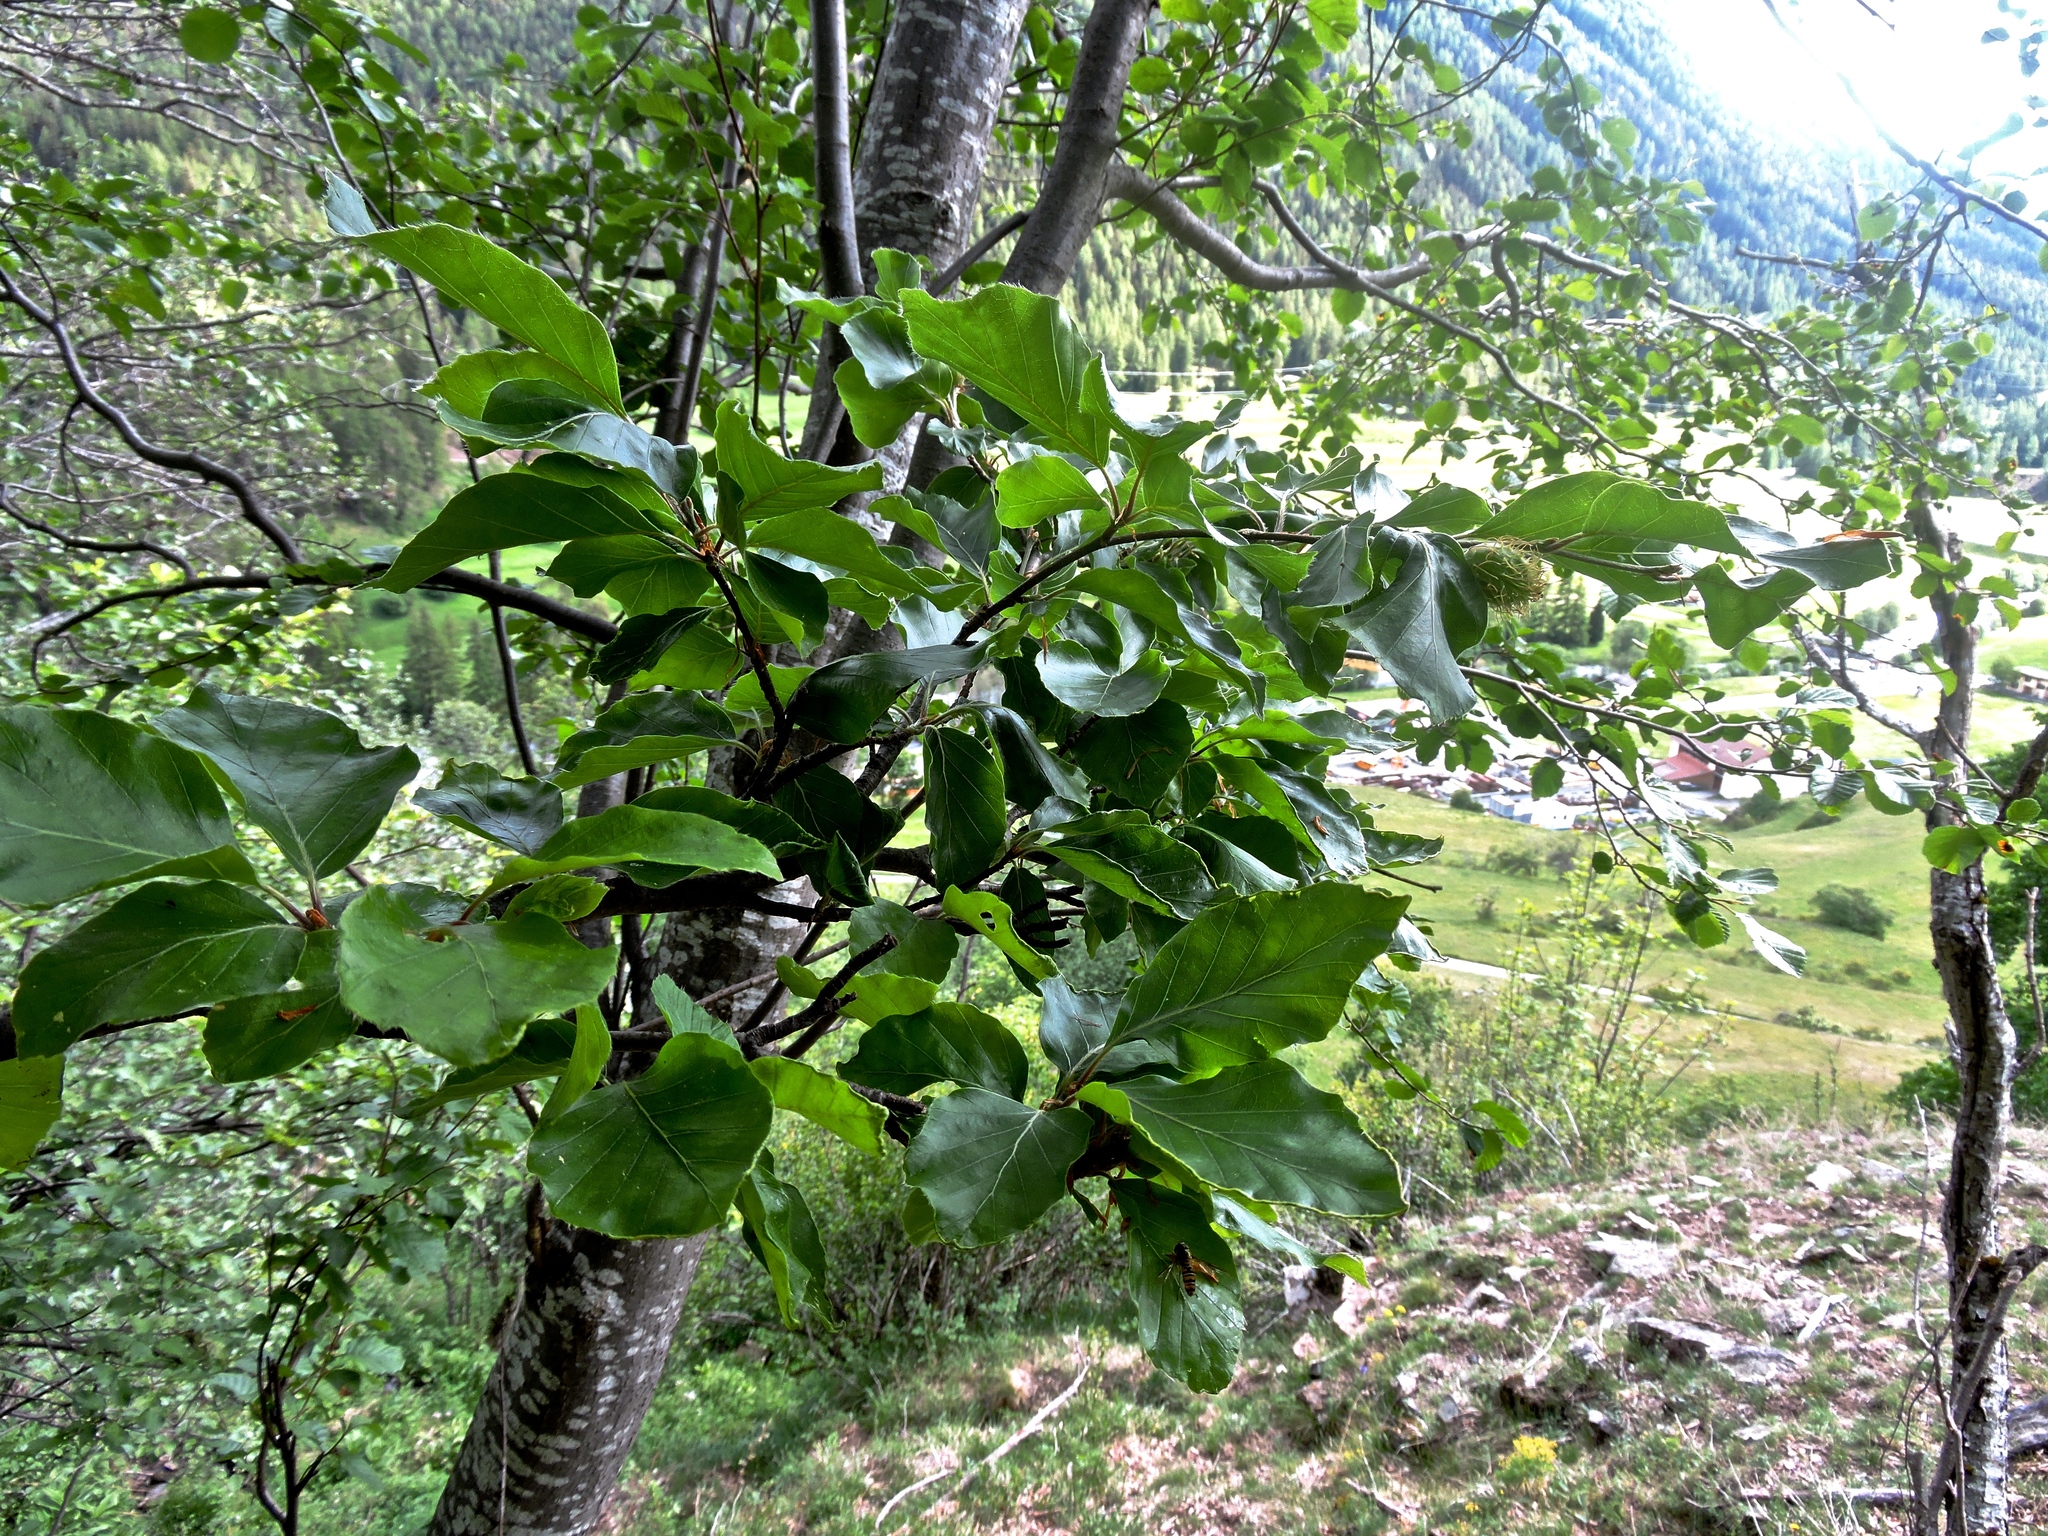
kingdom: Plantae
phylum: Tracheophyta
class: Magnoliopsida
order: Fagales
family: Fagaceae
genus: Fagus
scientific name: Fagus sylvatica
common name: Beech
